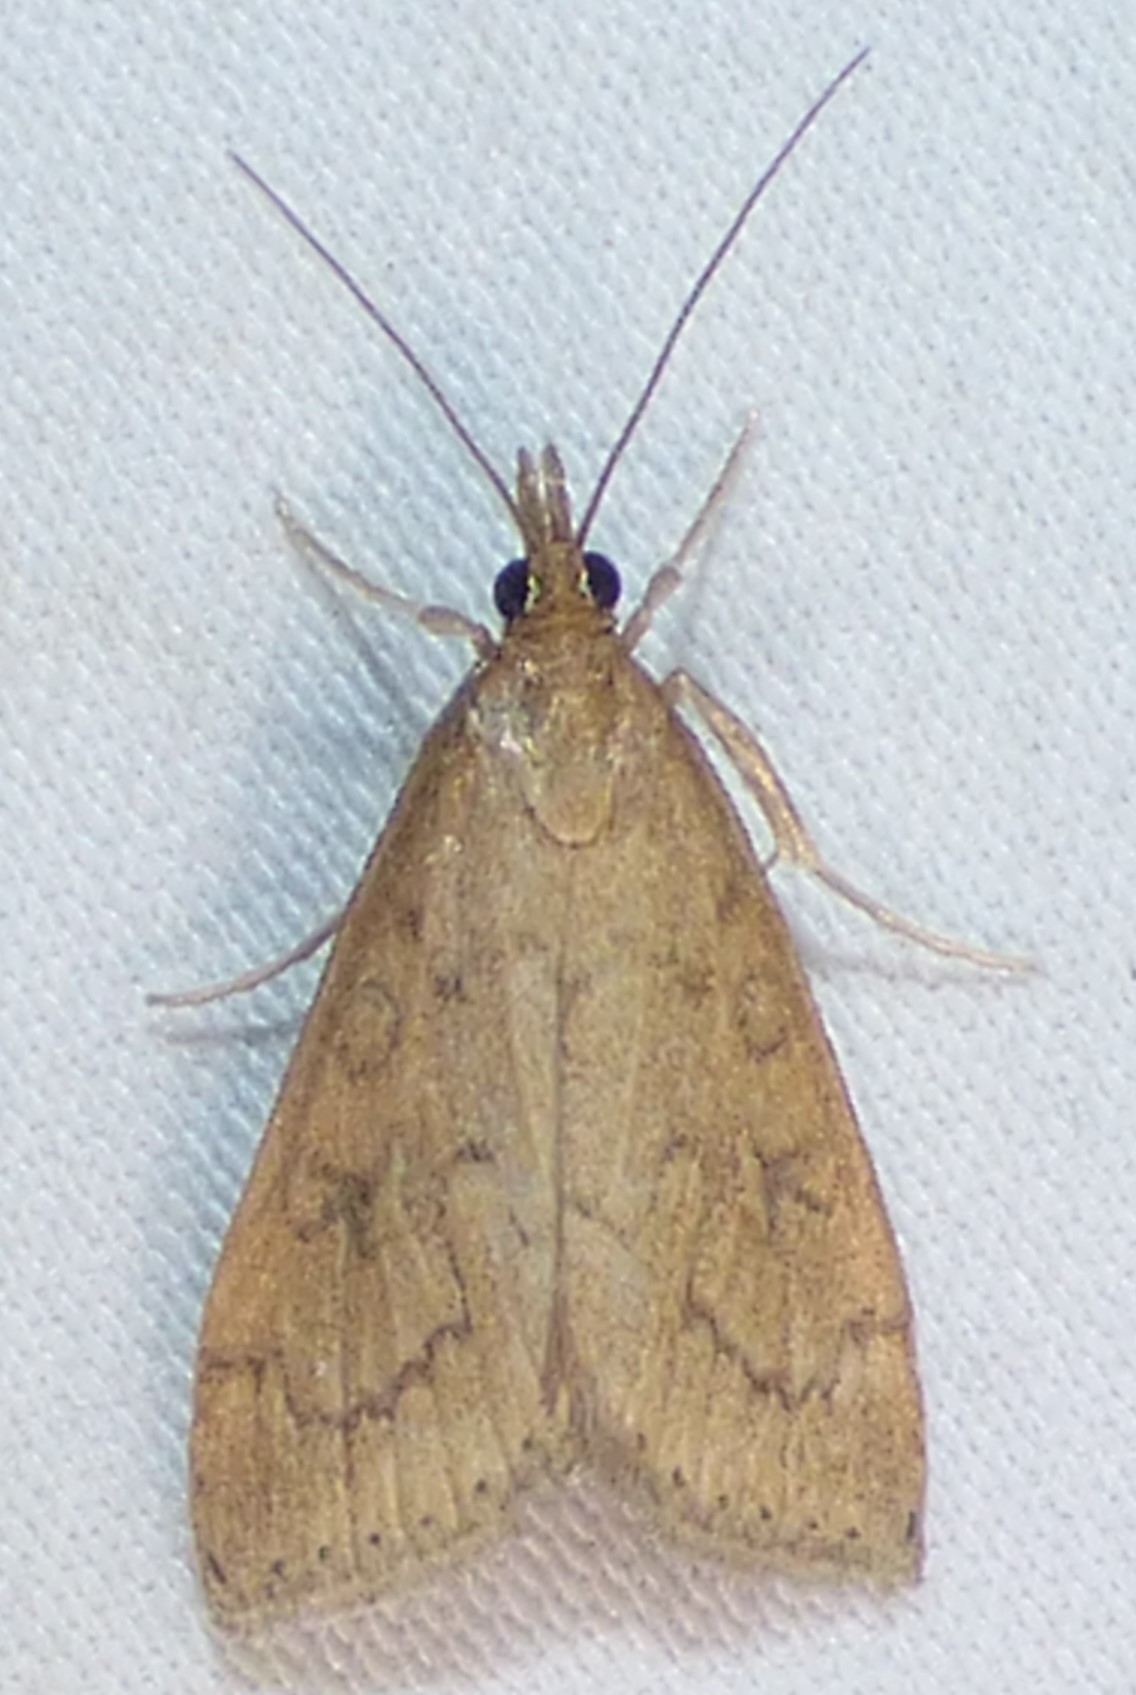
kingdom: Animalia
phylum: Arthropoda
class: Insecta
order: Lepidoptera
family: Crambidae
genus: Udea
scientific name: Udea rubigalis
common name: Celery leaftier moth
